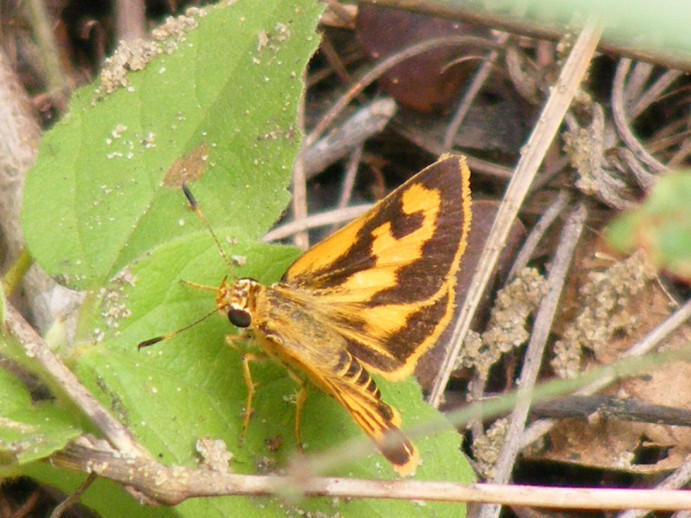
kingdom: Animalia
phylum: Arthropoda
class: Insecta
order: Lepidoptera
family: Hesperiidae
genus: Acada
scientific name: Acada biseriatus
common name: Axehead orange
